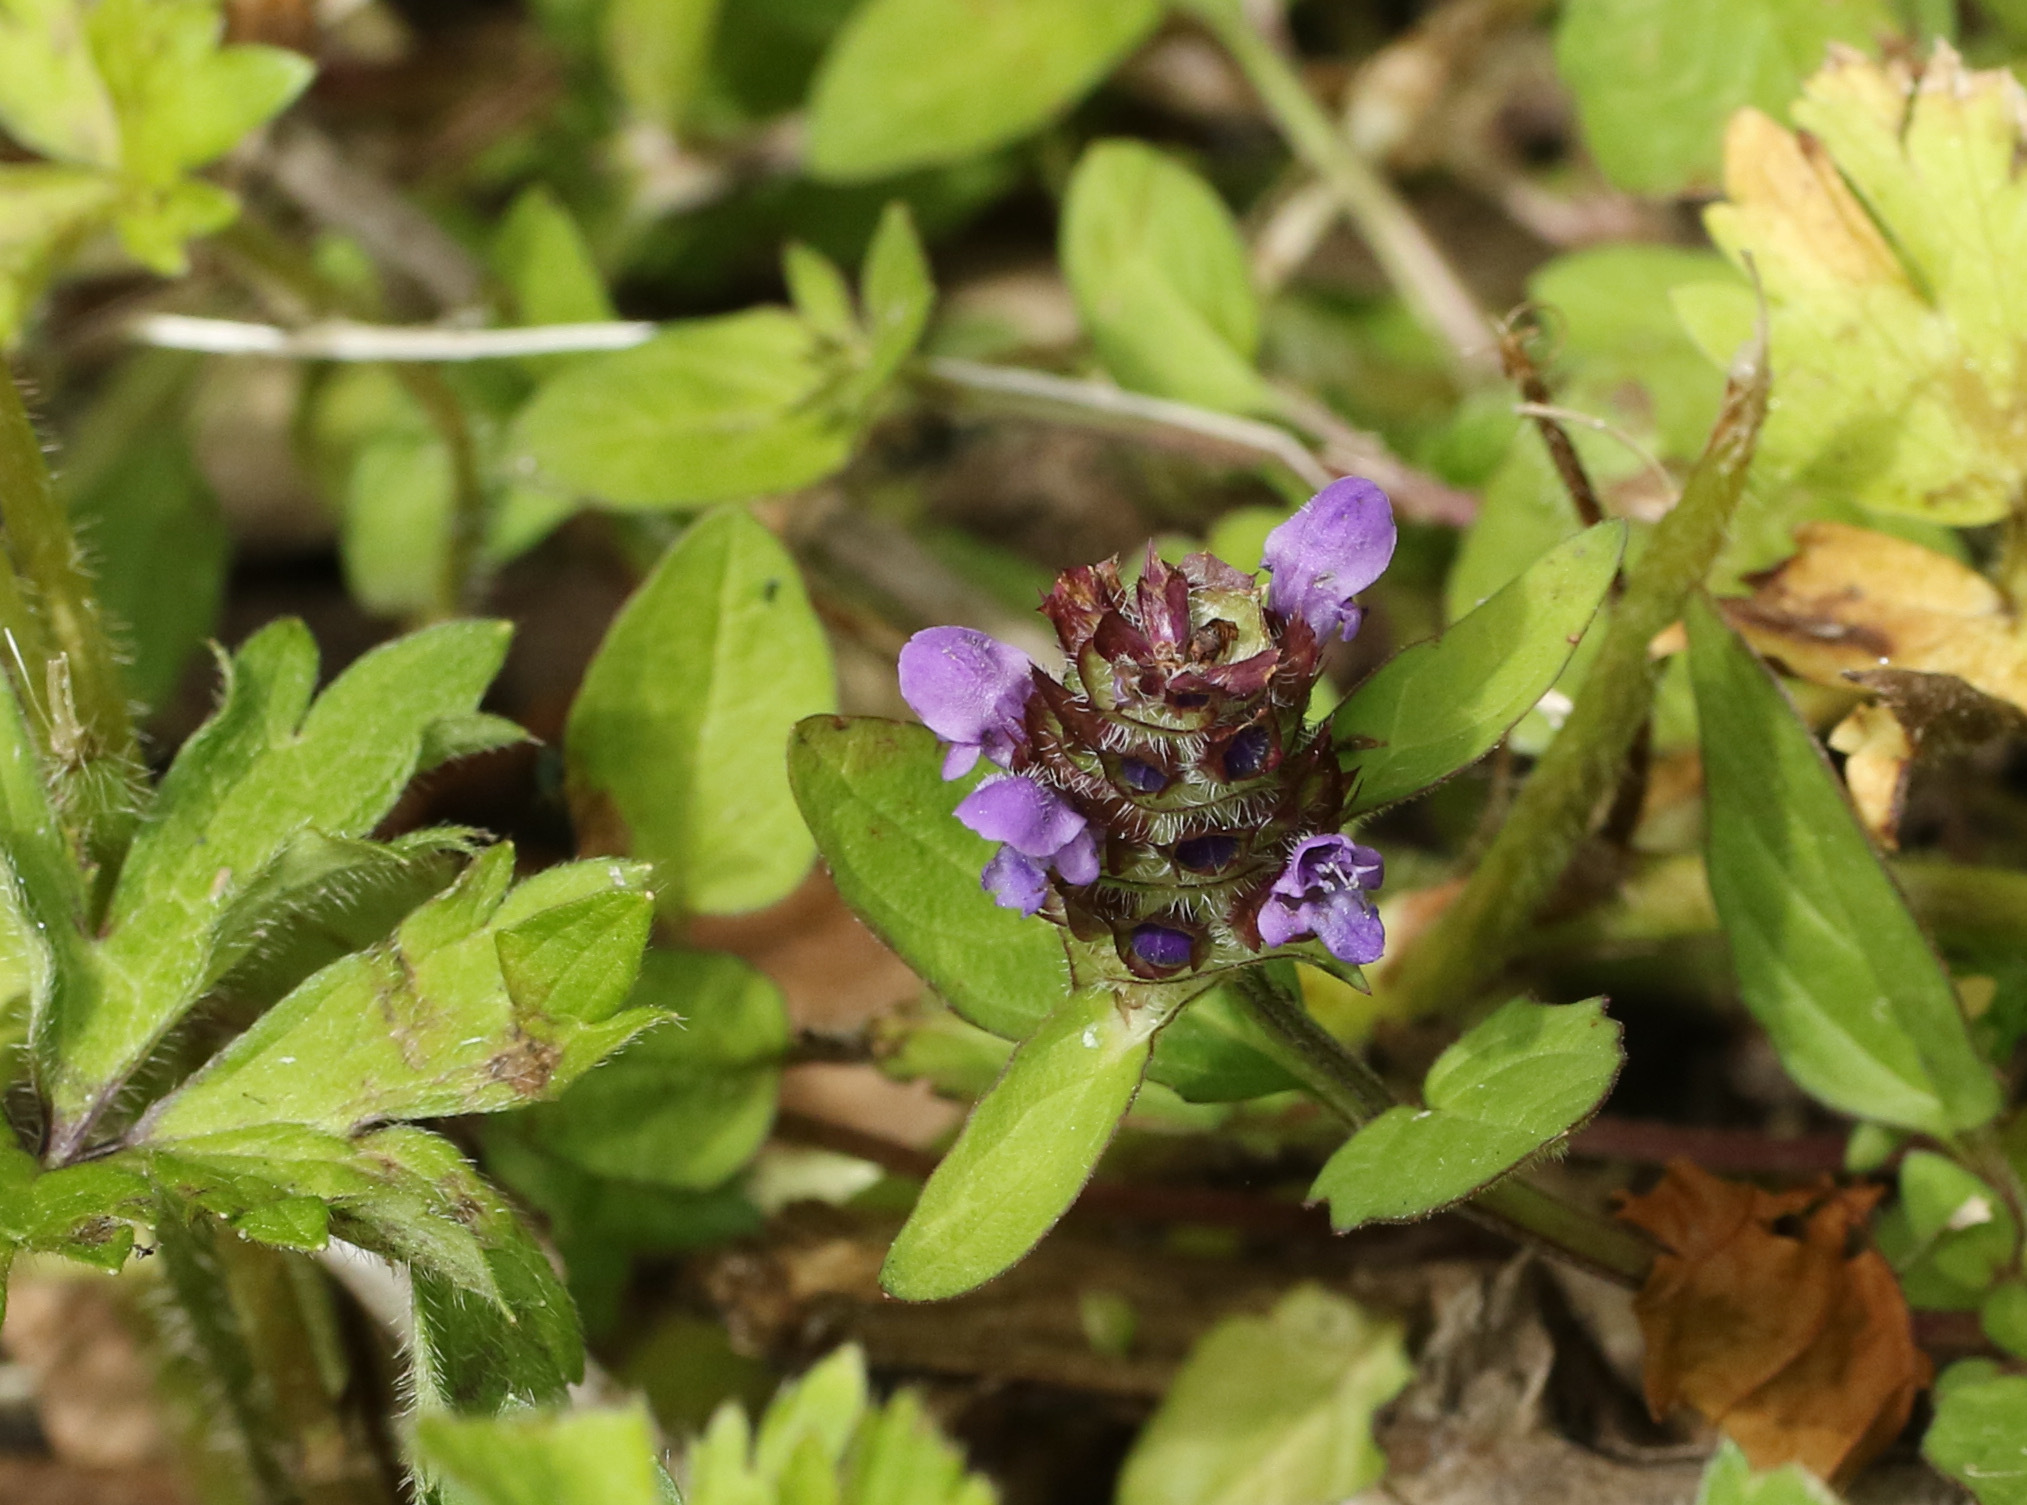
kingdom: Plantae
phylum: Tracheophyta
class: Magnoliopsida
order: Lamiales
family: Lamiaceae
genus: Prunella
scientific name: Prunella vulgaris
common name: Heal-all
